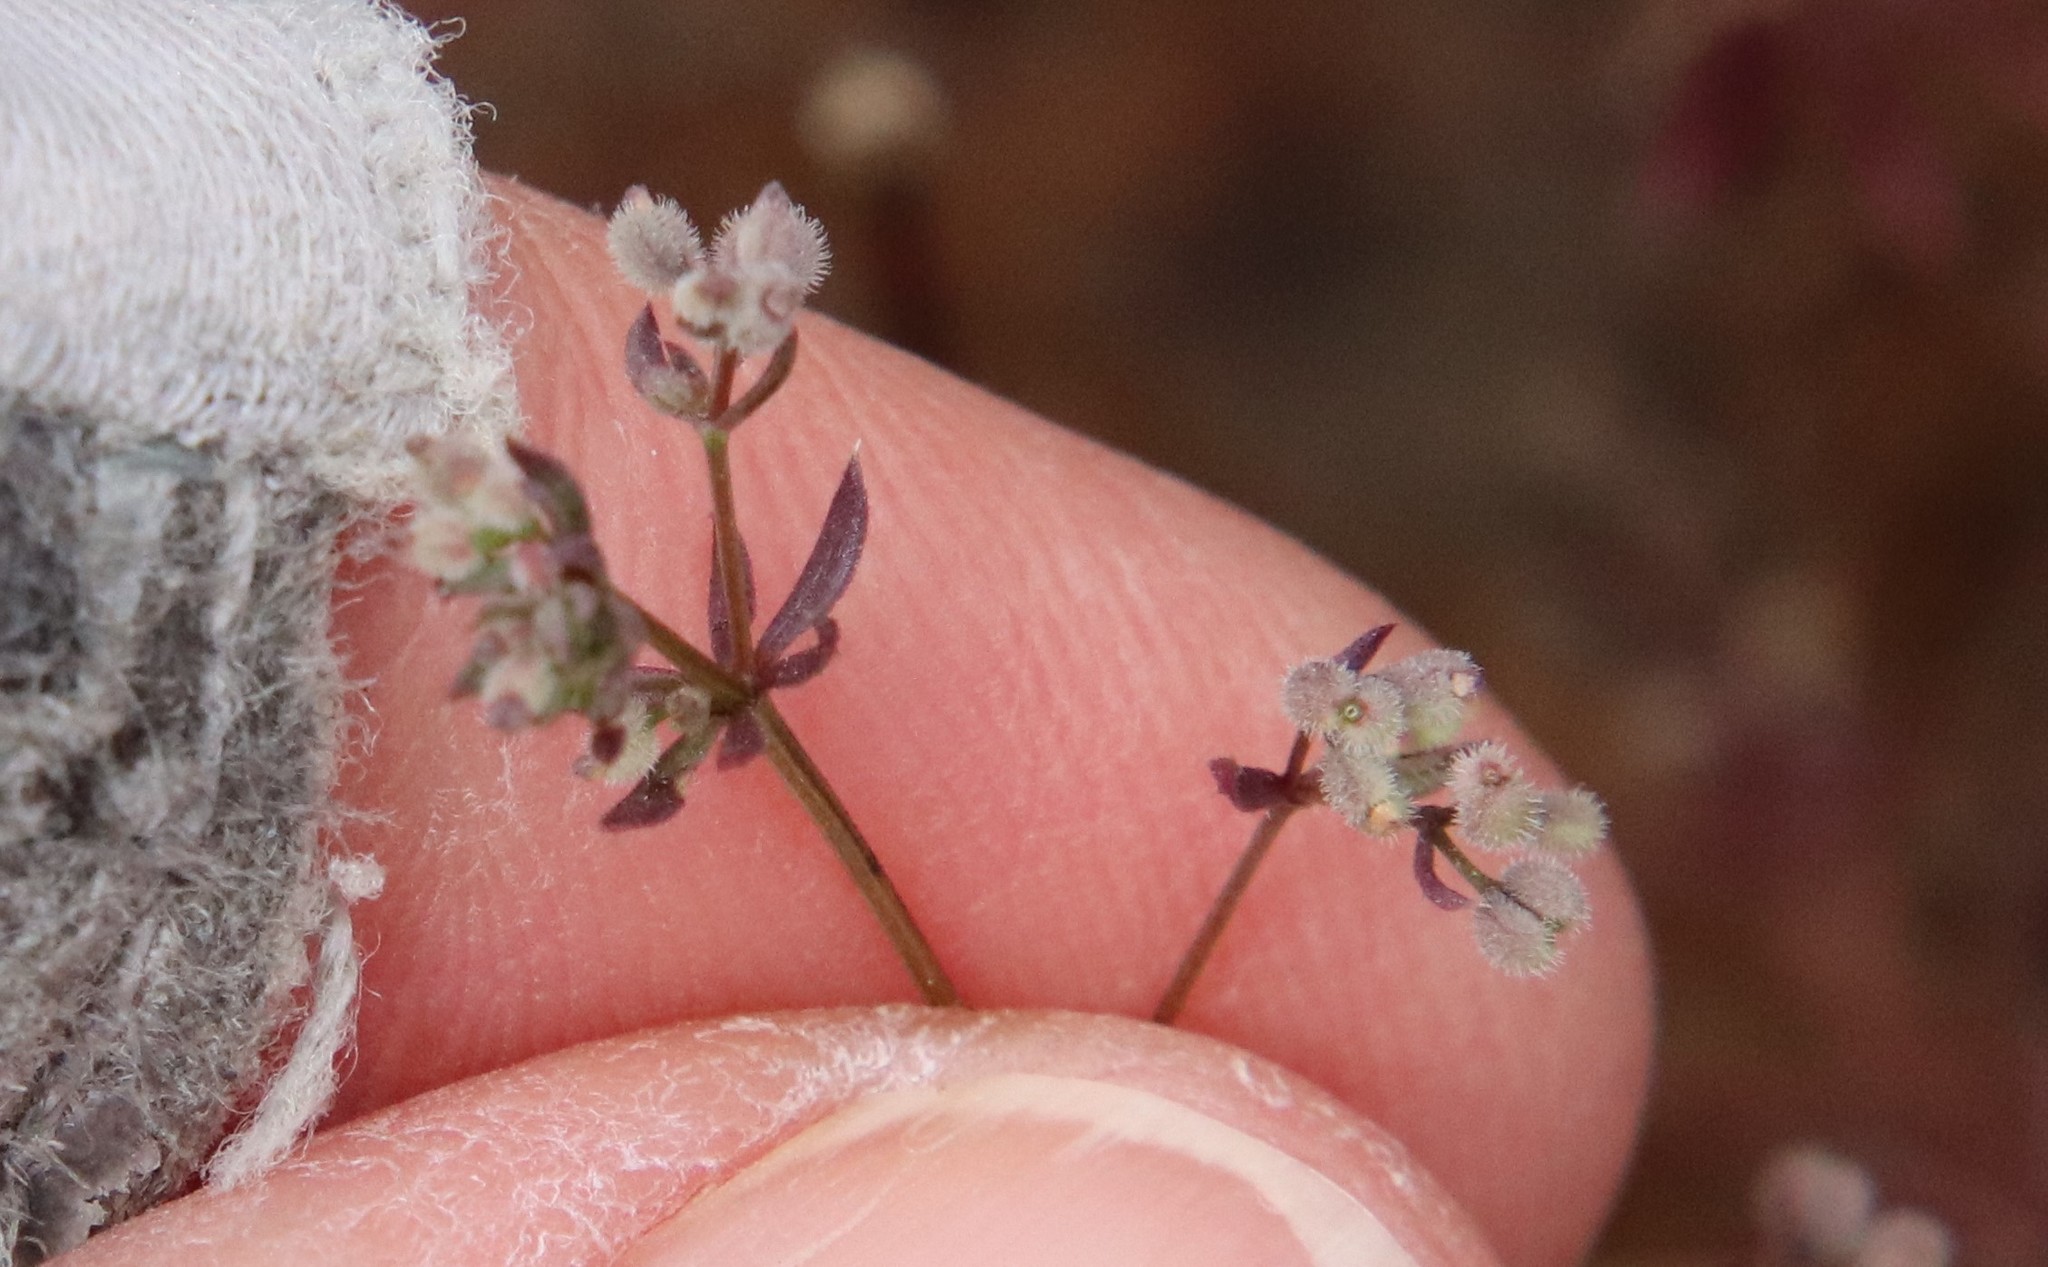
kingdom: Plantae
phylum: Tracheophyta
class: Magnoliopsida
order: Gentianales
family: Rubiaceae
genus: Galium
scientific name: Galium parisiense
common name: Wall bedstraw
